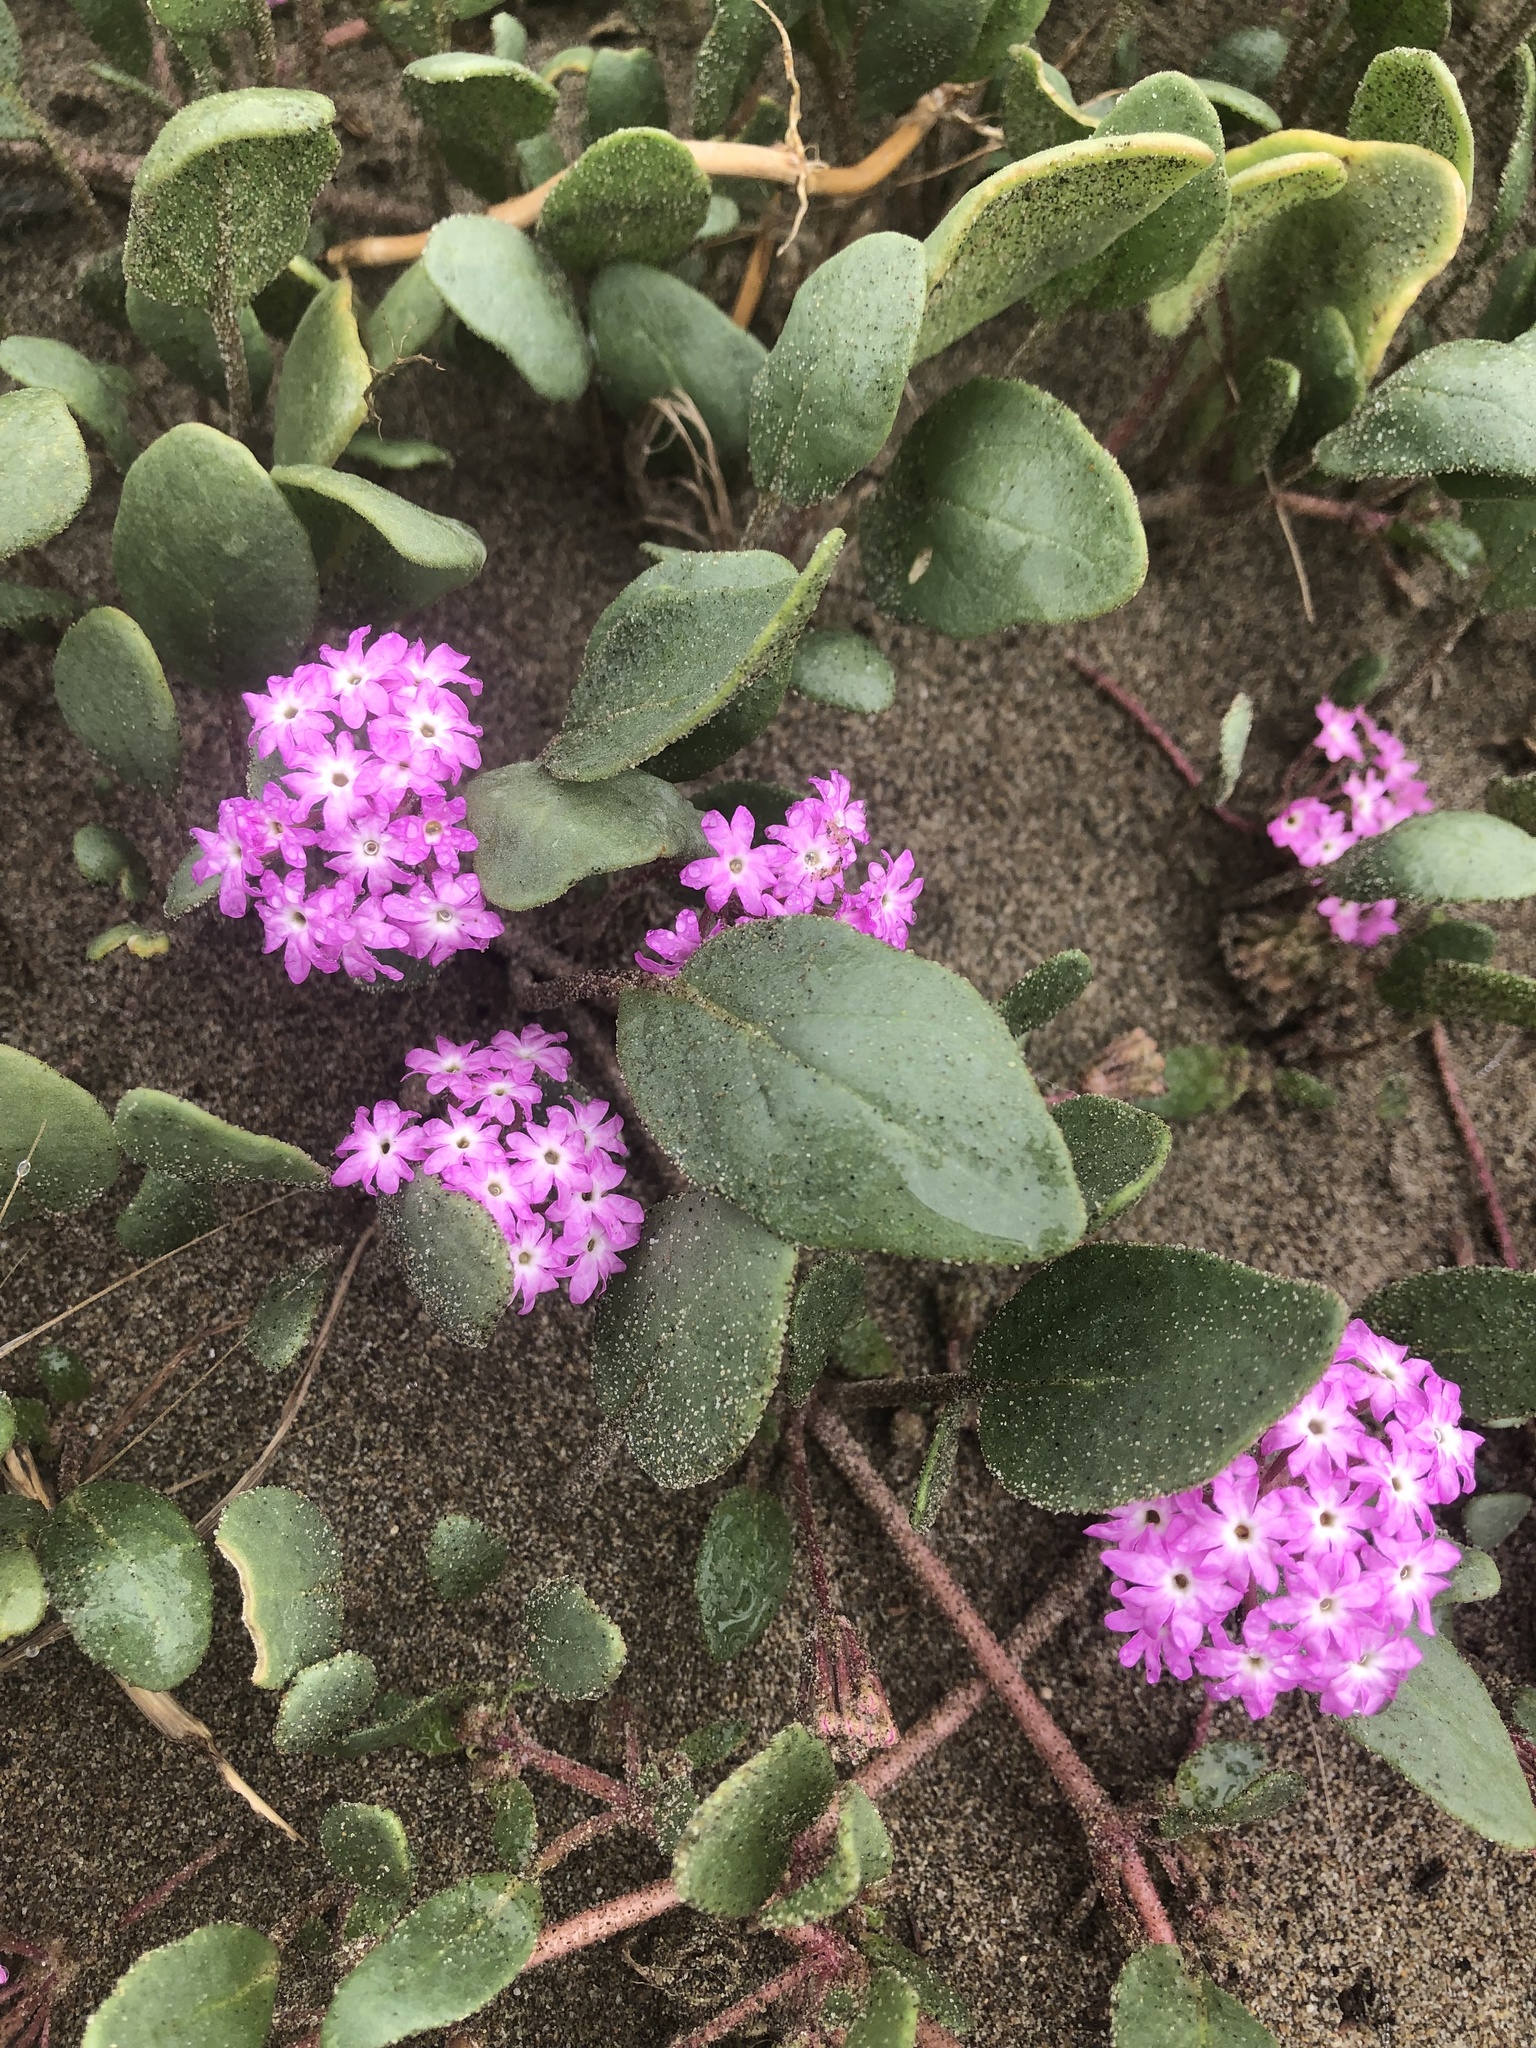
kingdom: Plantae
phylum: Tracheophyta
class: Magnoliopsida
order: Caryophyllales
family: Nyctaginaceae
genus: Abronia
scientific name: Abronia umbellata
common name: Sand-verbena
